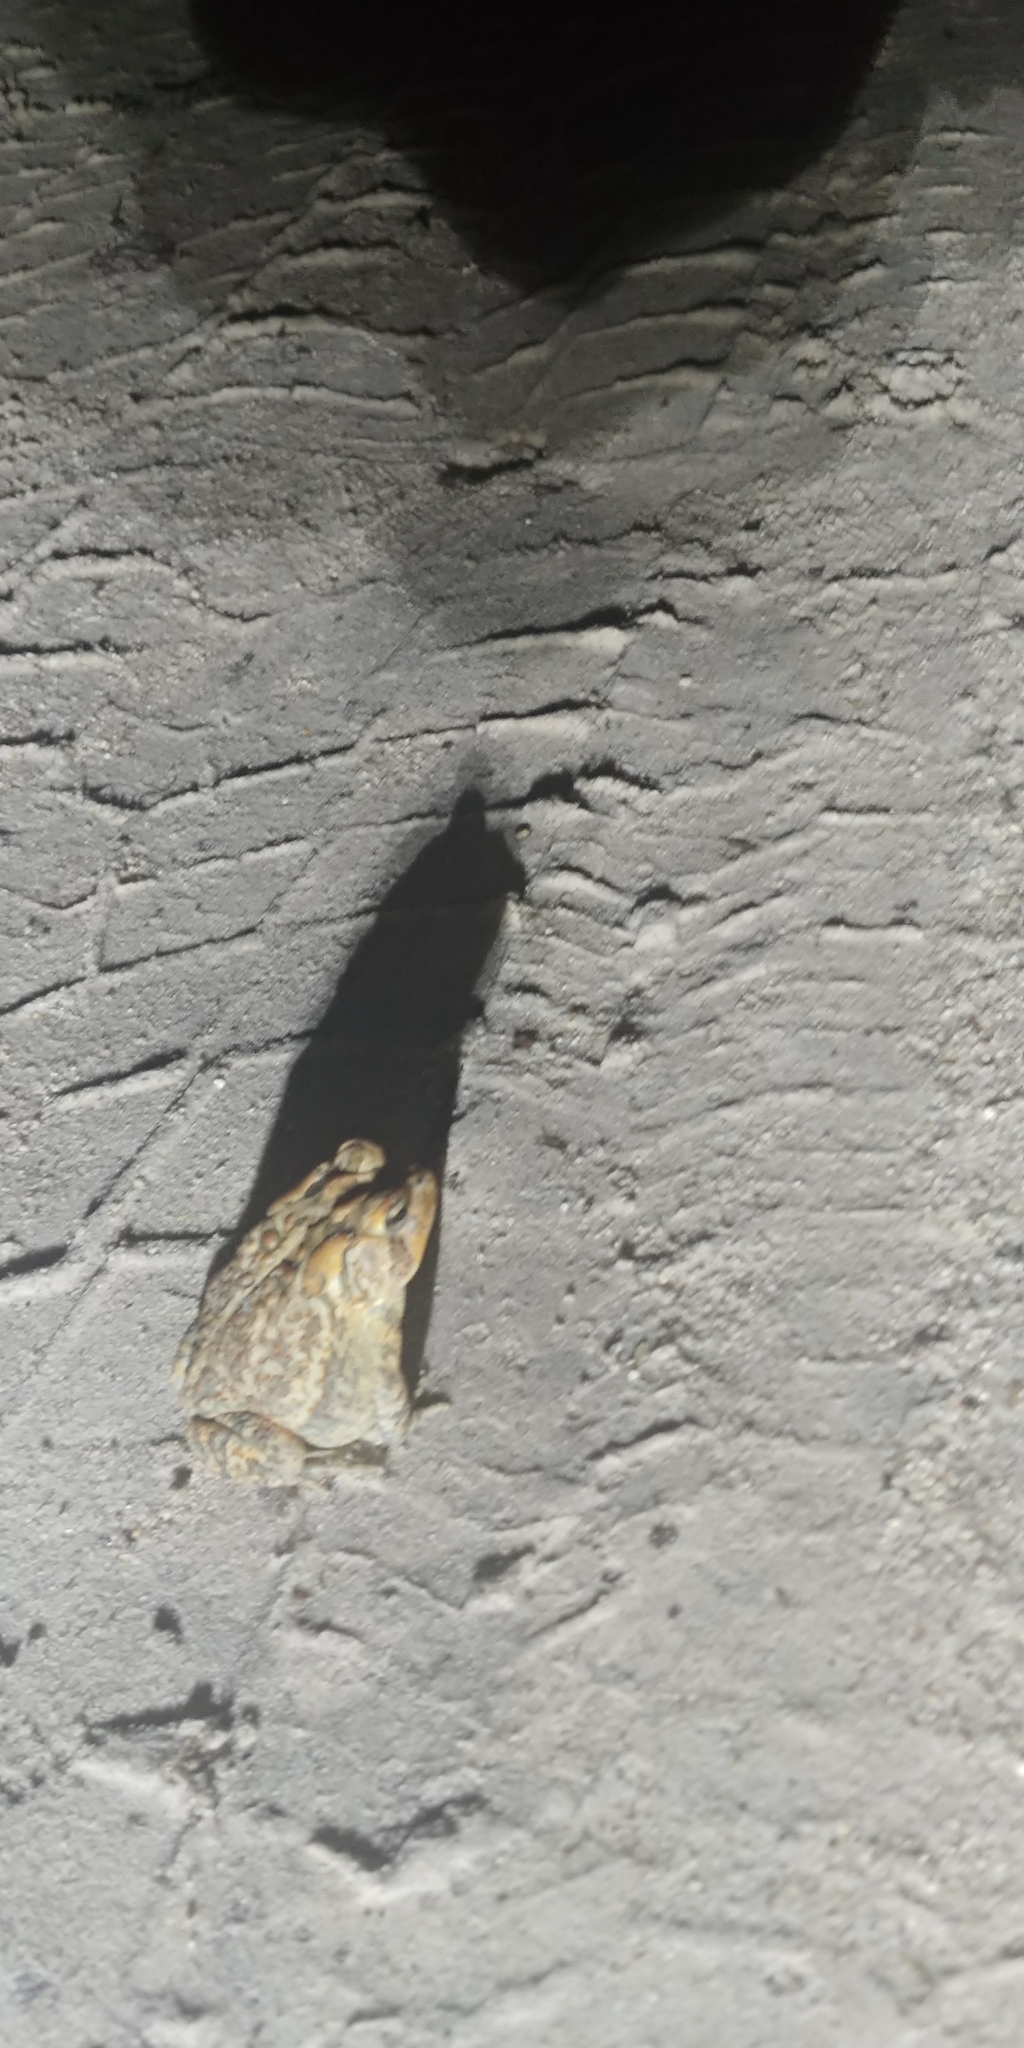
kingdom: Animalia
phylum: Chordata
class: Amphibia
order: Anura
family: Bufonidae
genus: Anaxyrus
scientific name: Anaxyrus terrestris
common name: Southern toad
